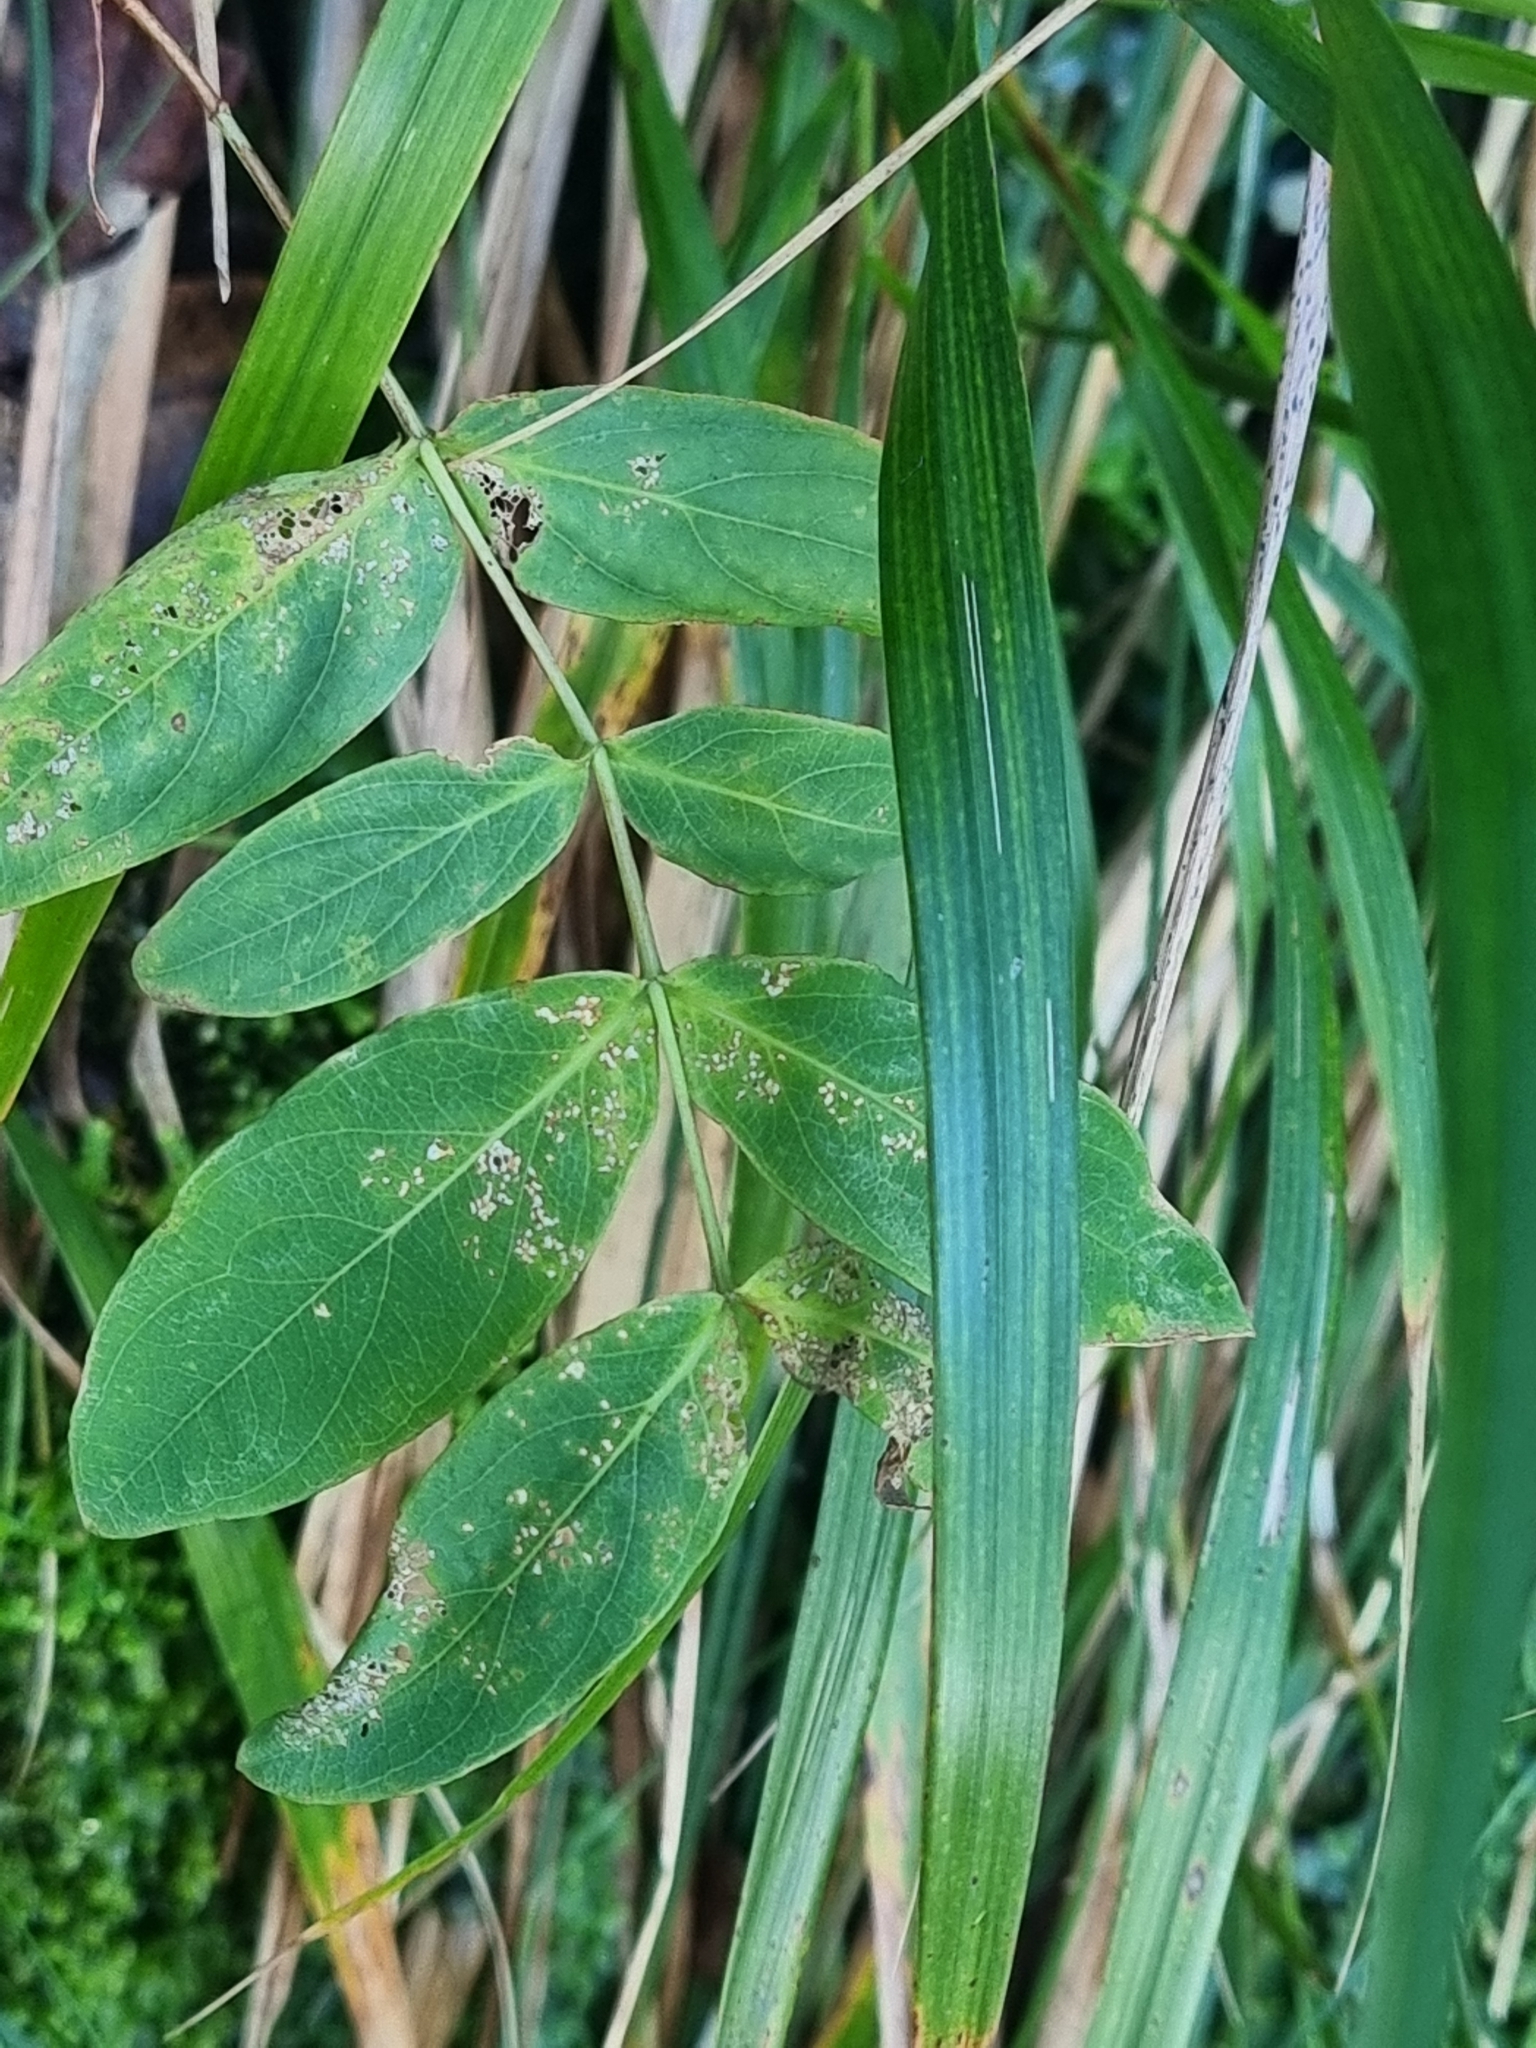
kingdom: Plantae
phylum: Tracheophyta
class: Magnoliopsida
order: Malpighiales
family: Hypericaceae
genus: Hypericum
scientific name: Hypericum grandifolium
